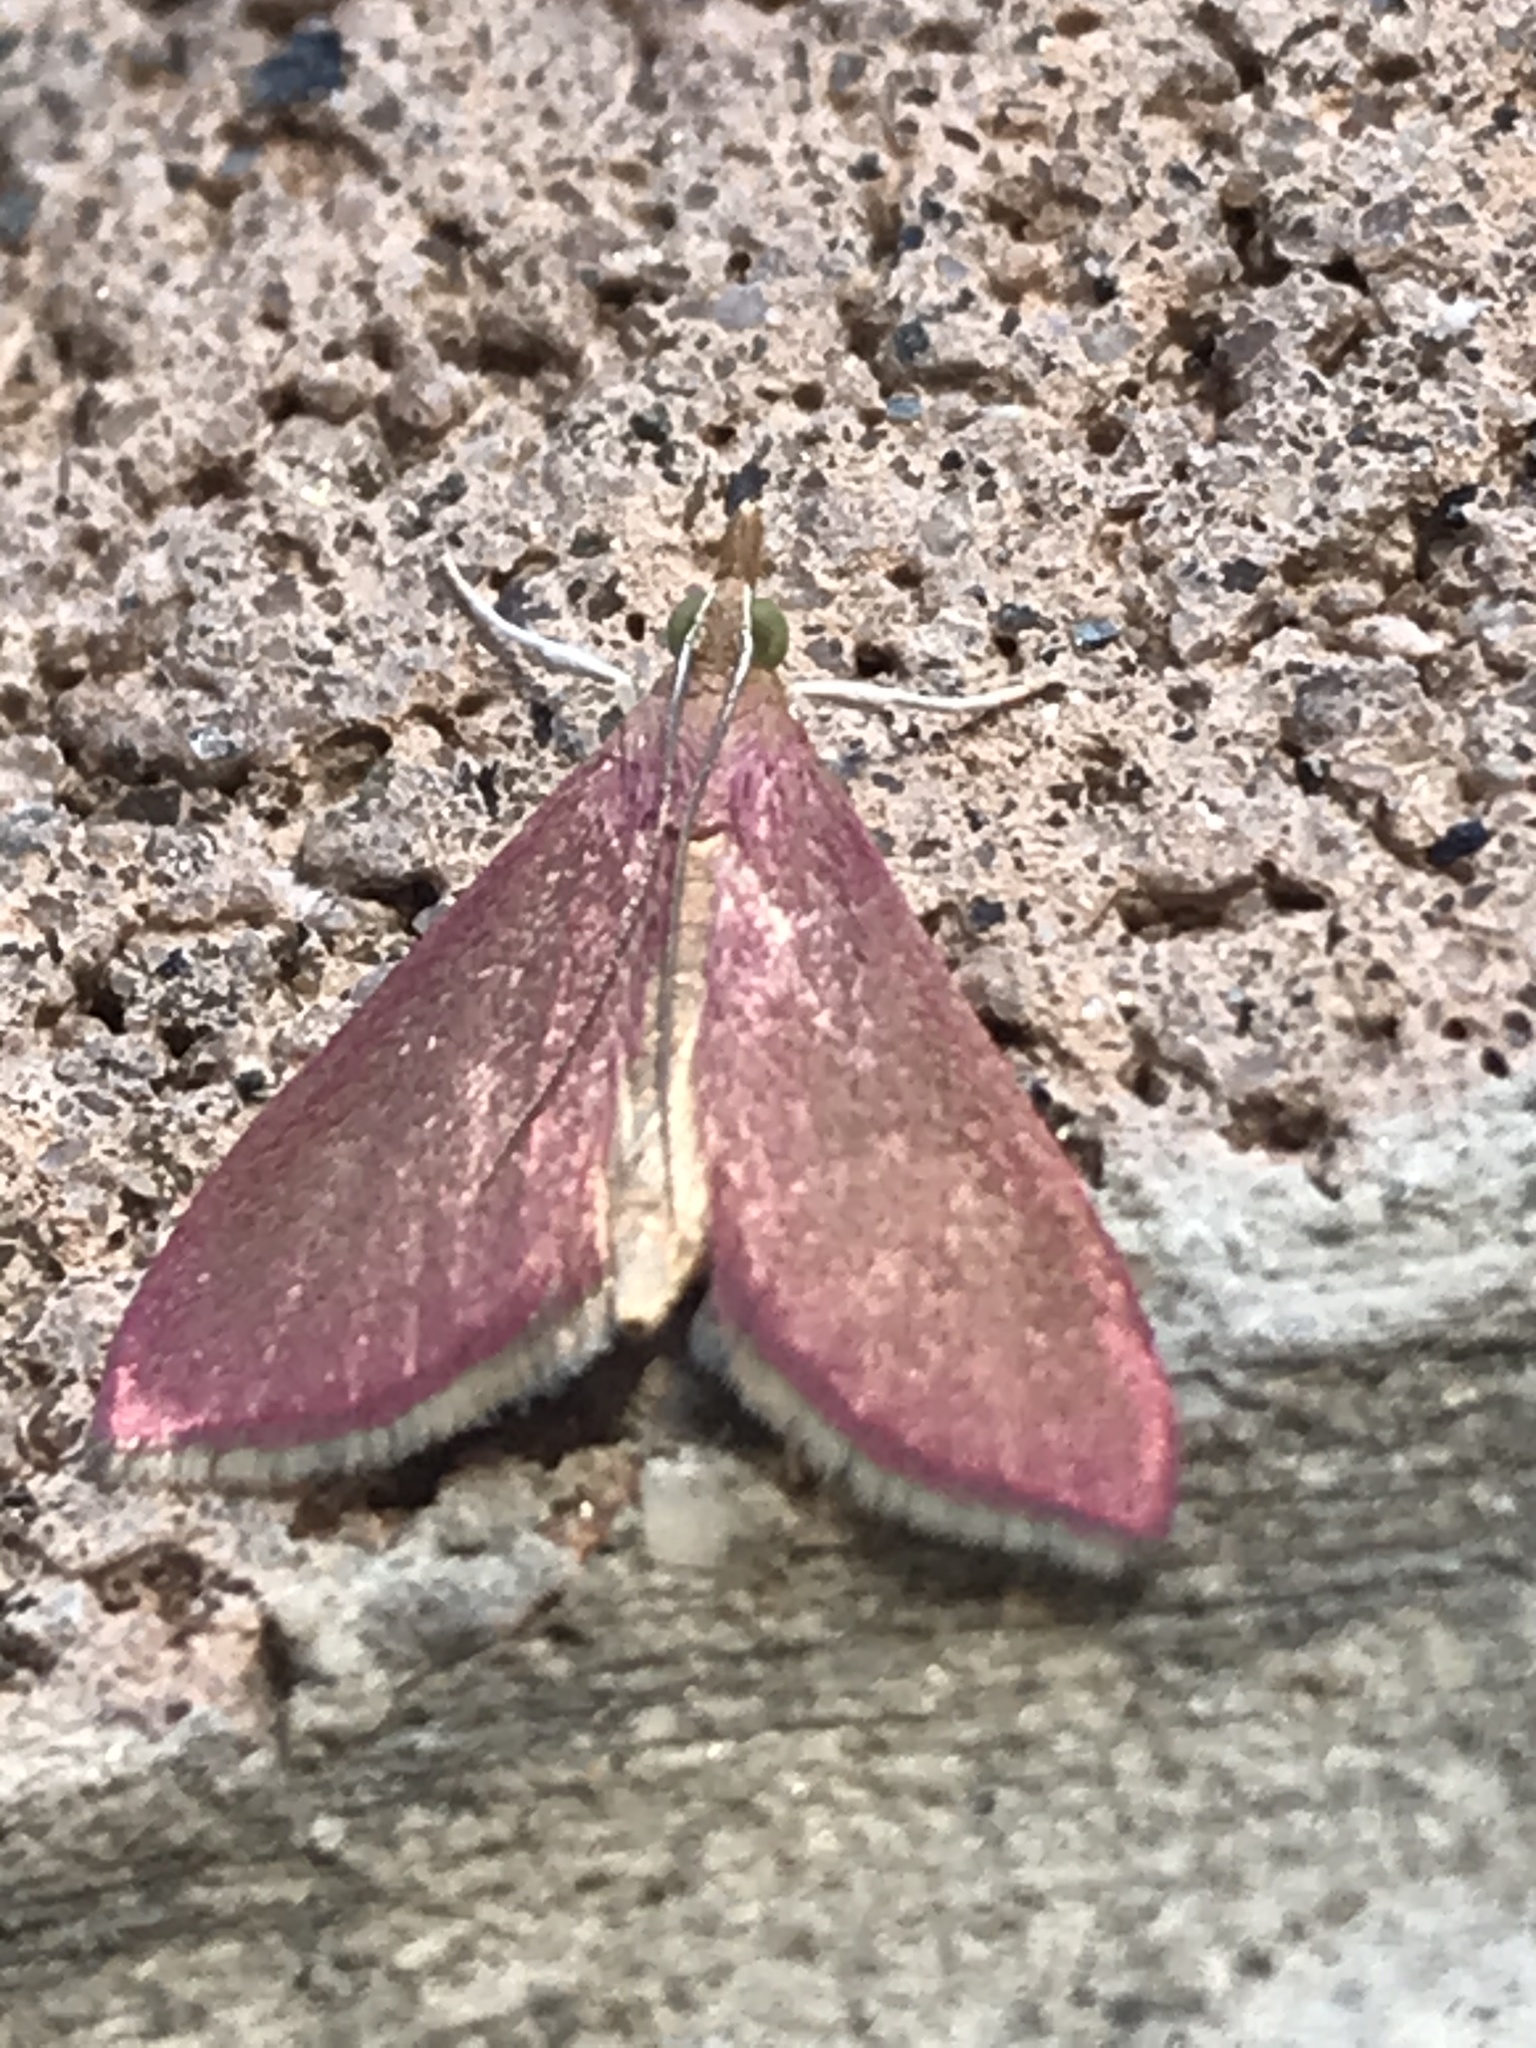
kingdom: Animalia
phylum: Arthropoda
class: Insecta
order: Lepidoptera
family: Crambidae
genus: Pyrausta
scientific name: Pyrausta inornatalis
